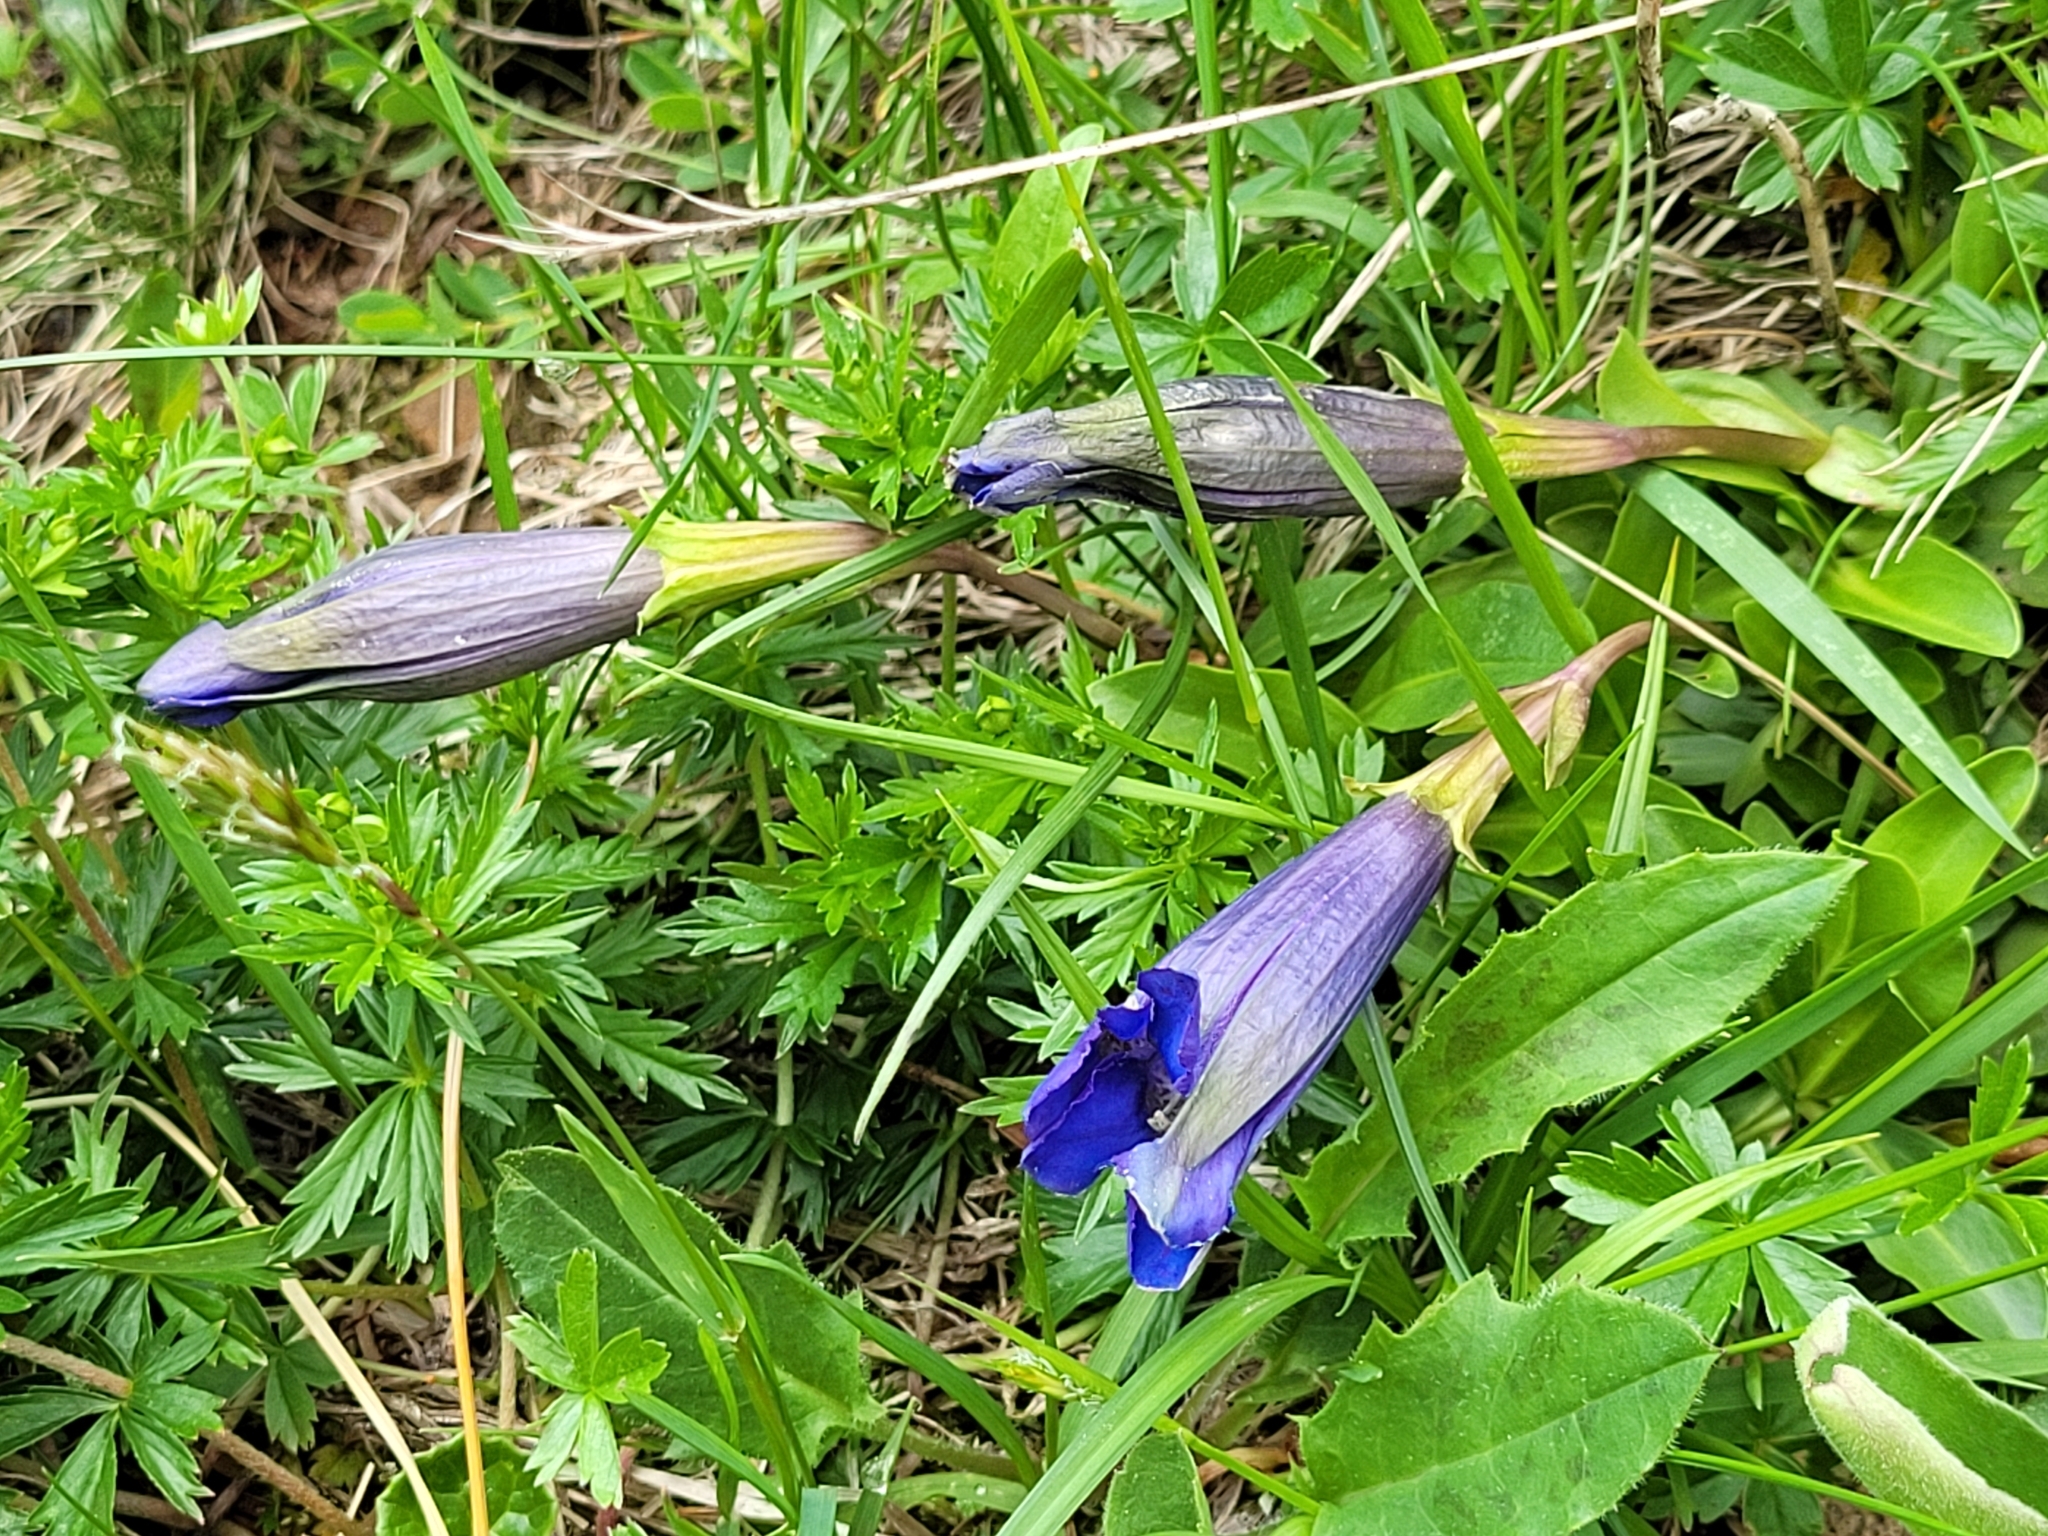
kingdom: Plantae
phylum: Tracheophyta
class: Magnoliopsida
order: Gentianales
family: Gentianaceae
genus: Gentiana
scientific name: Gentiana acaulis
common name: Trumpet gentian
